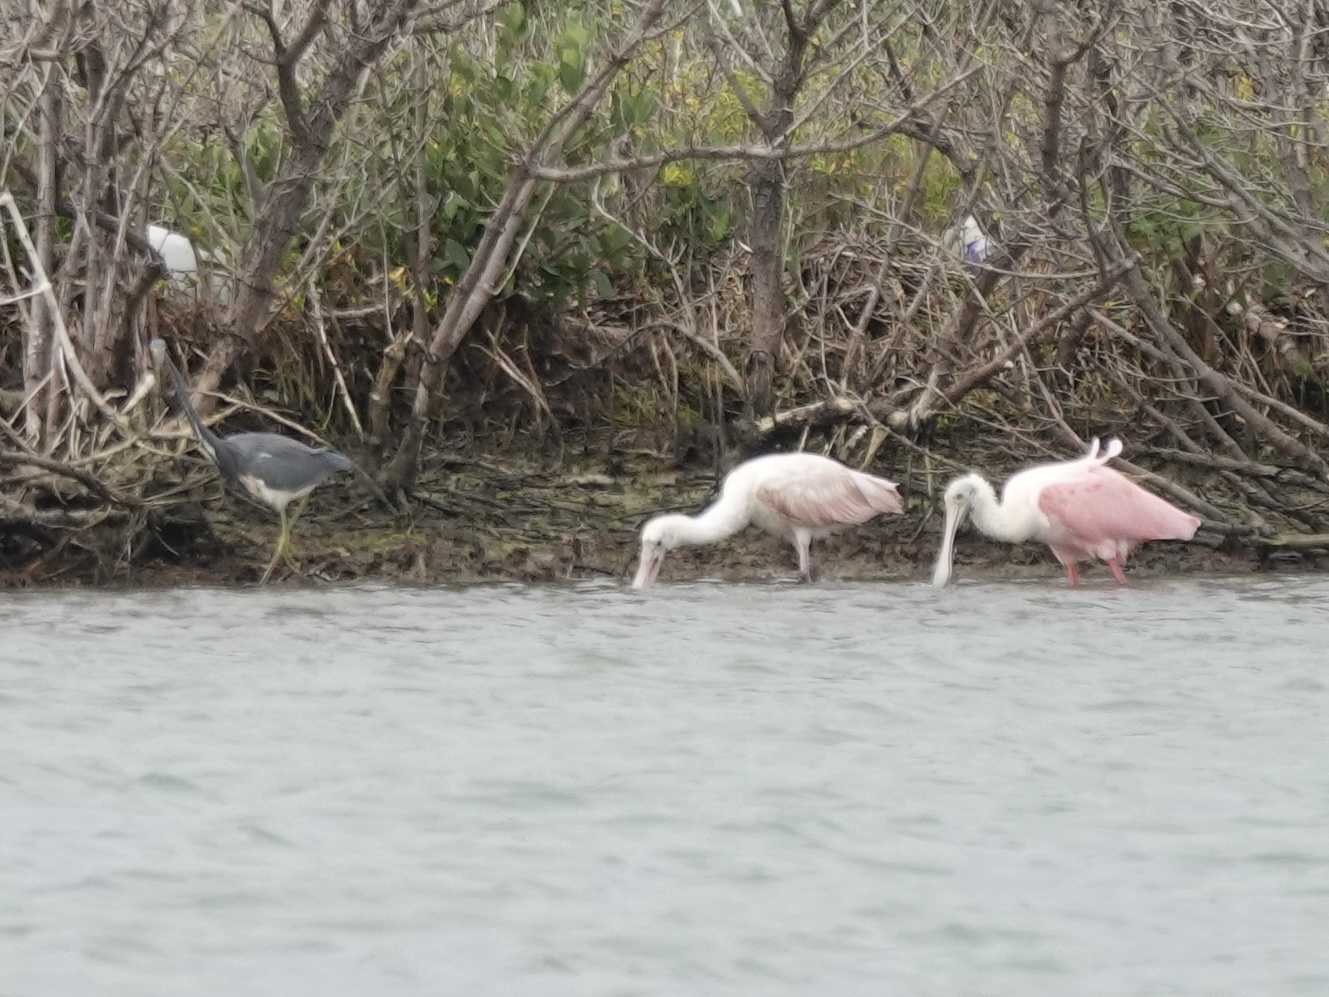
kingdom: Animalia
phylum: Chordata
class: Aves
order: Pelecaniformes
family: Ardeidae
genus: Egretta
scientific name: Egretta tricolor
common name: Tricolored heron
